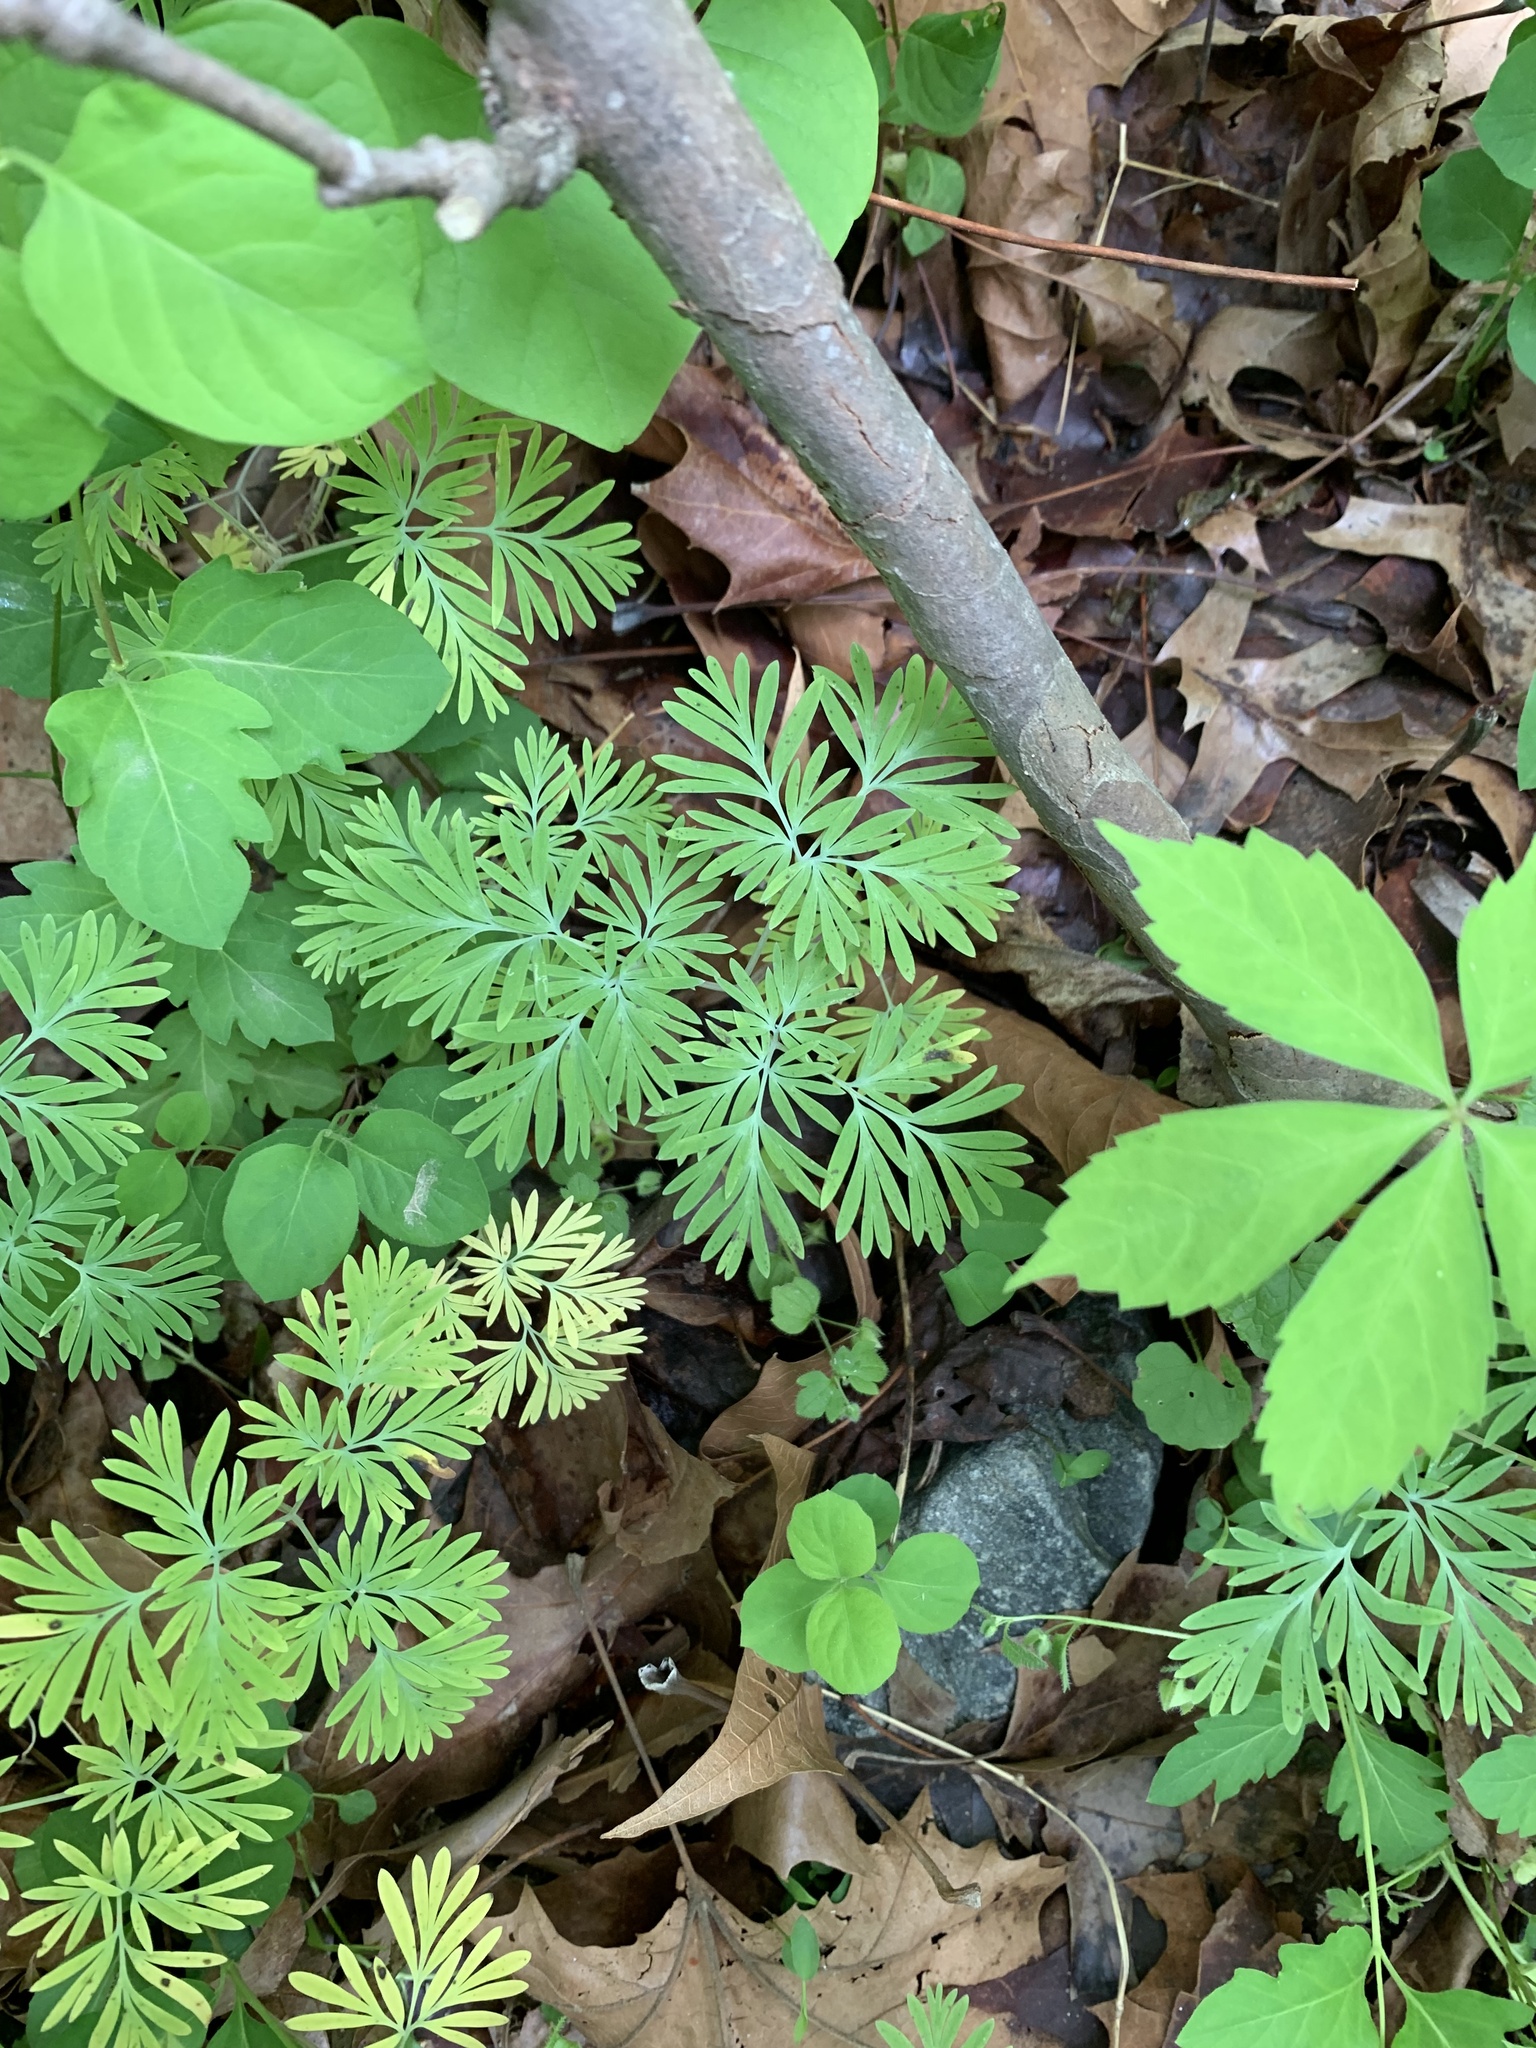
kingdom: Plantae
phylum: Tracheophyta
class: Magnoliopsida
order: Ranunculales
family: Papaveraceae
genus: Dicentra
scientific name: Dicentra canadensis
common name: Squirrel-corn
